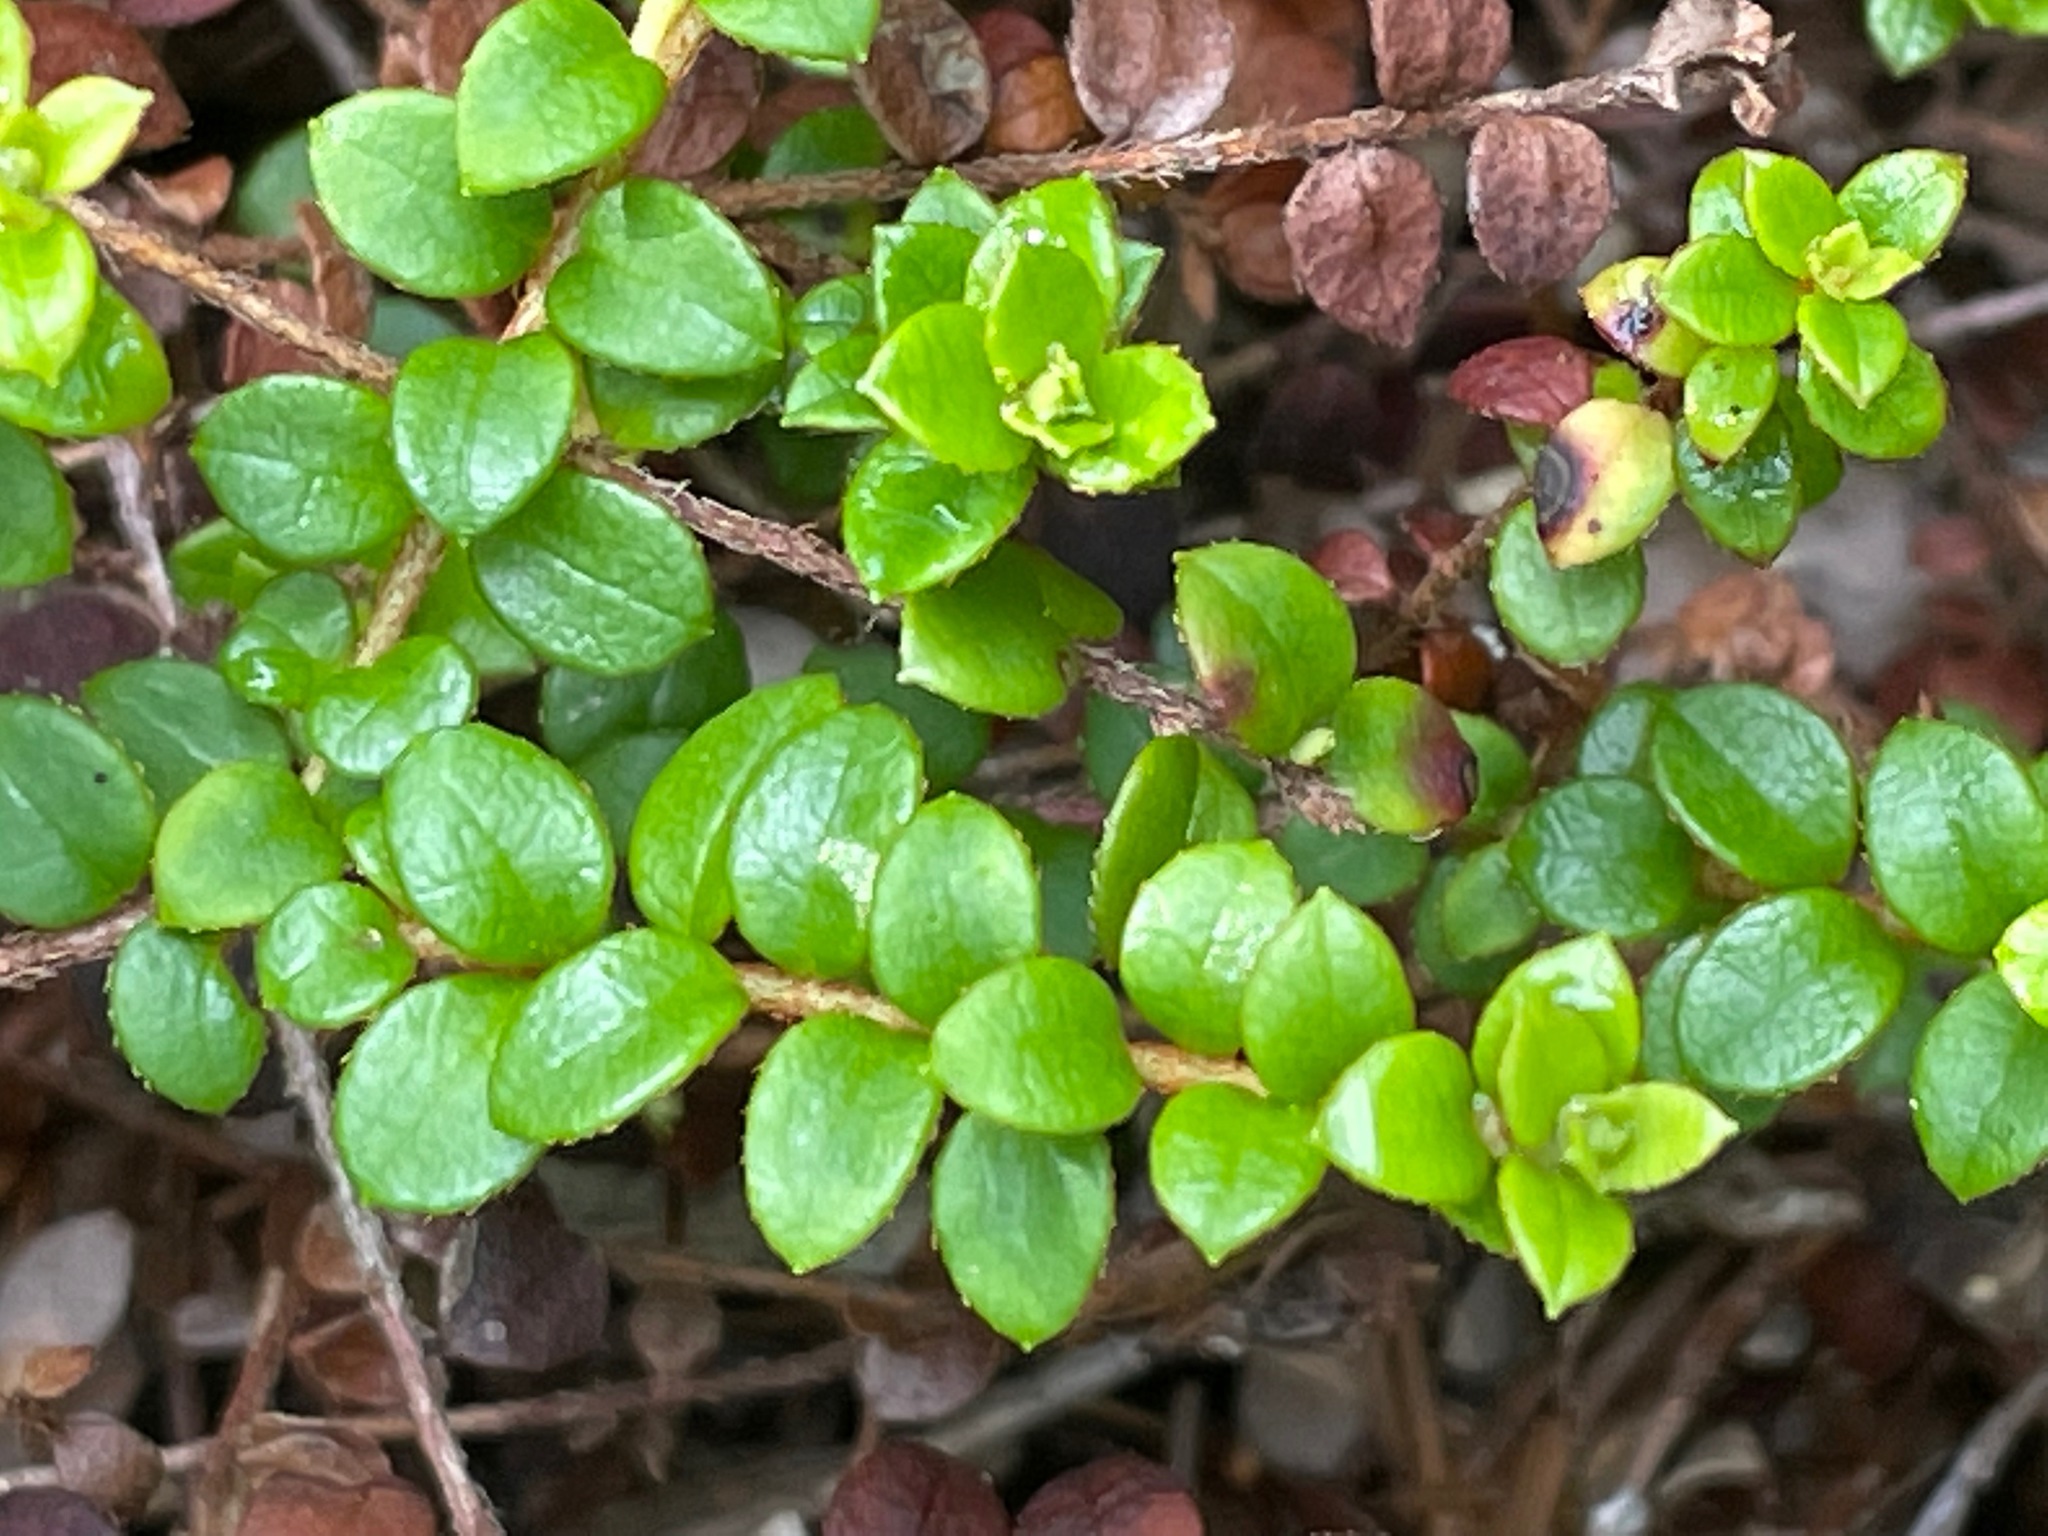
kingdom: Plantae
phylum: Tracheophyta
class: Magnoliopsida
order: Ericales
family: Ericaceae
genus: Gaultheria
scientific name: Gaultheria hispidula
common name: Cancer wintergreen
